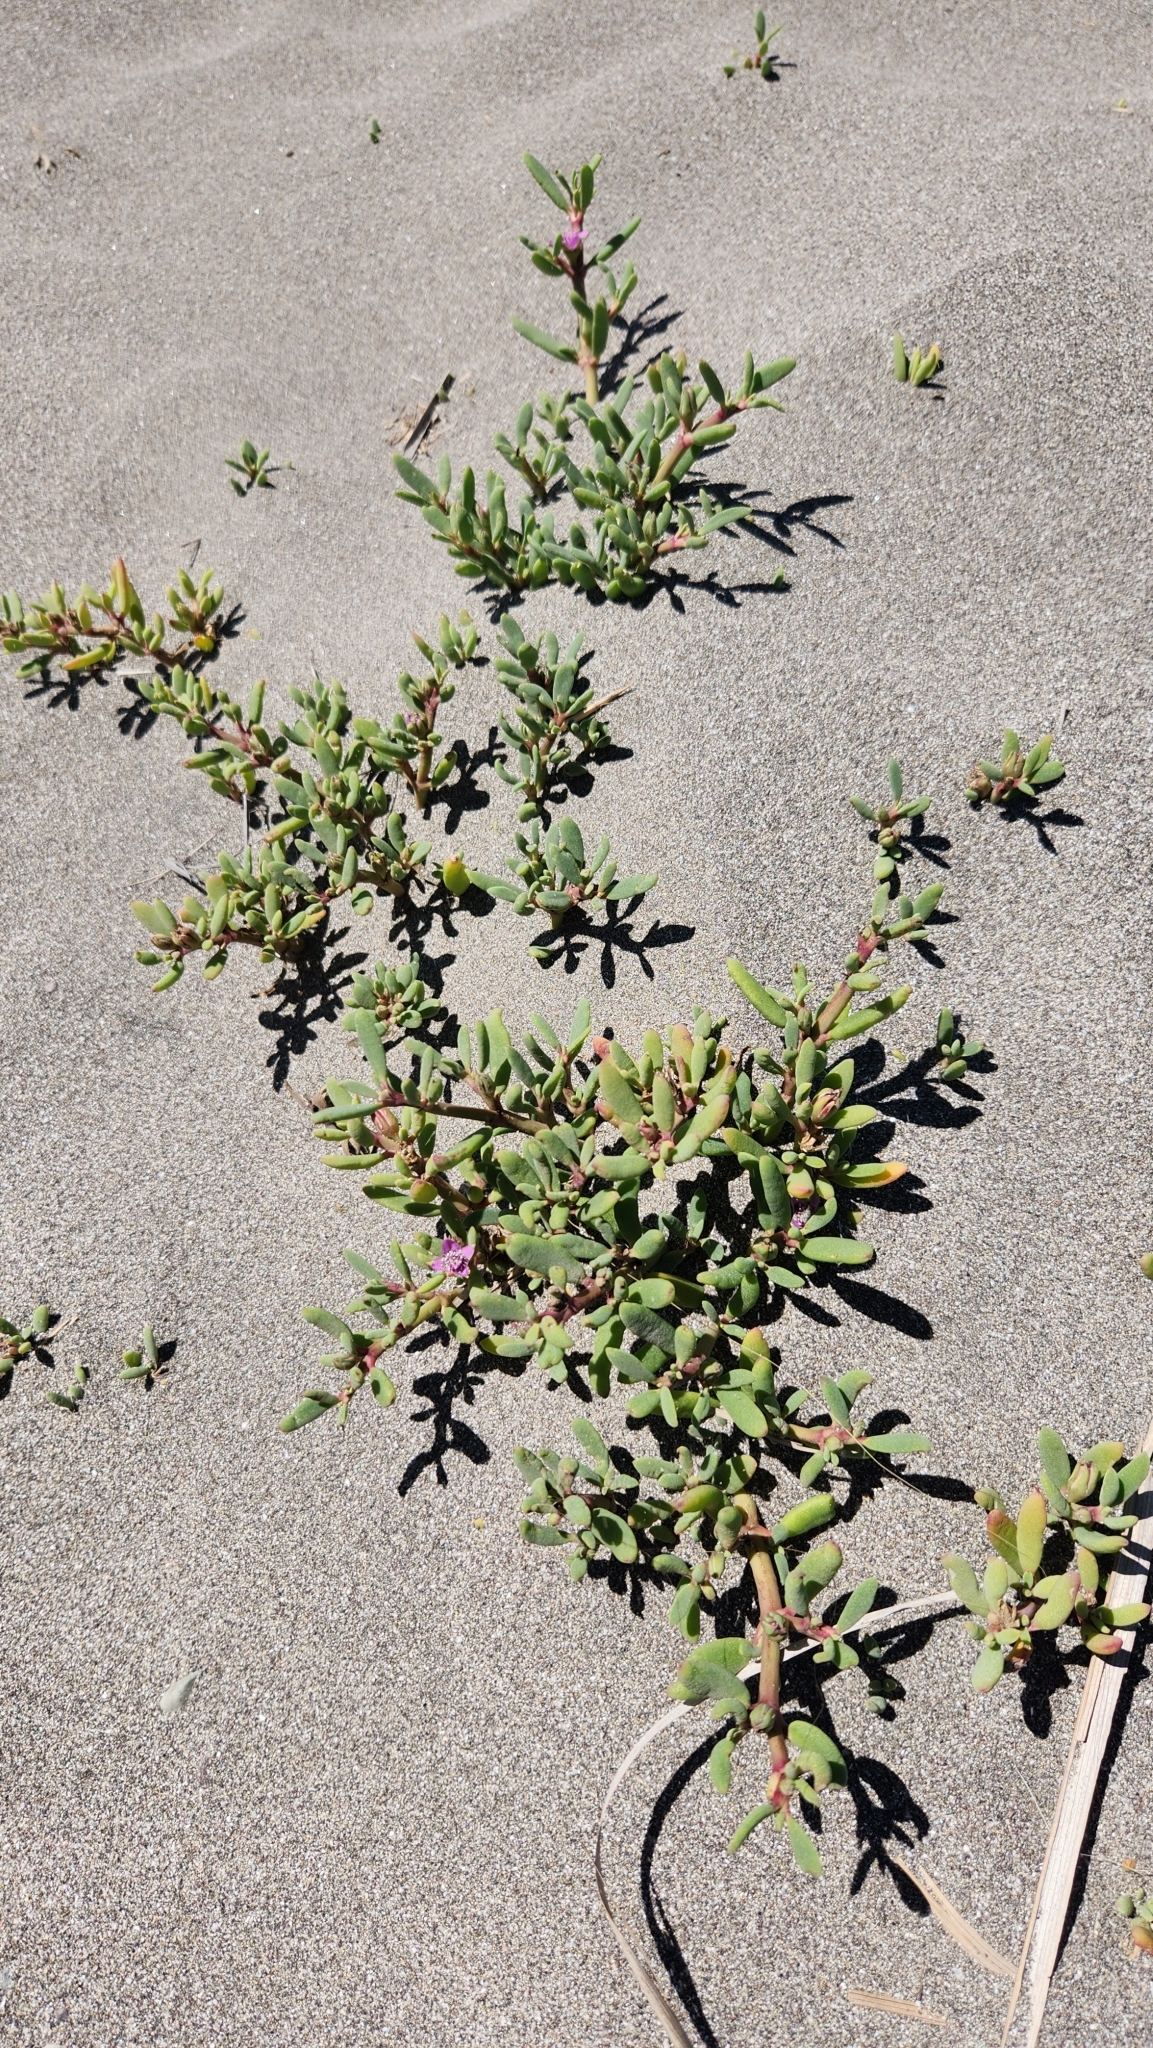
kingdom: Plantae
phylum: Tracheophyta
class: Magnoliopsida
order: Caryophyllales
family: Aizoaceae
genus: Sesuvium
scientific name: Sesuvium portulacastrum
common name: Sea-purslane
